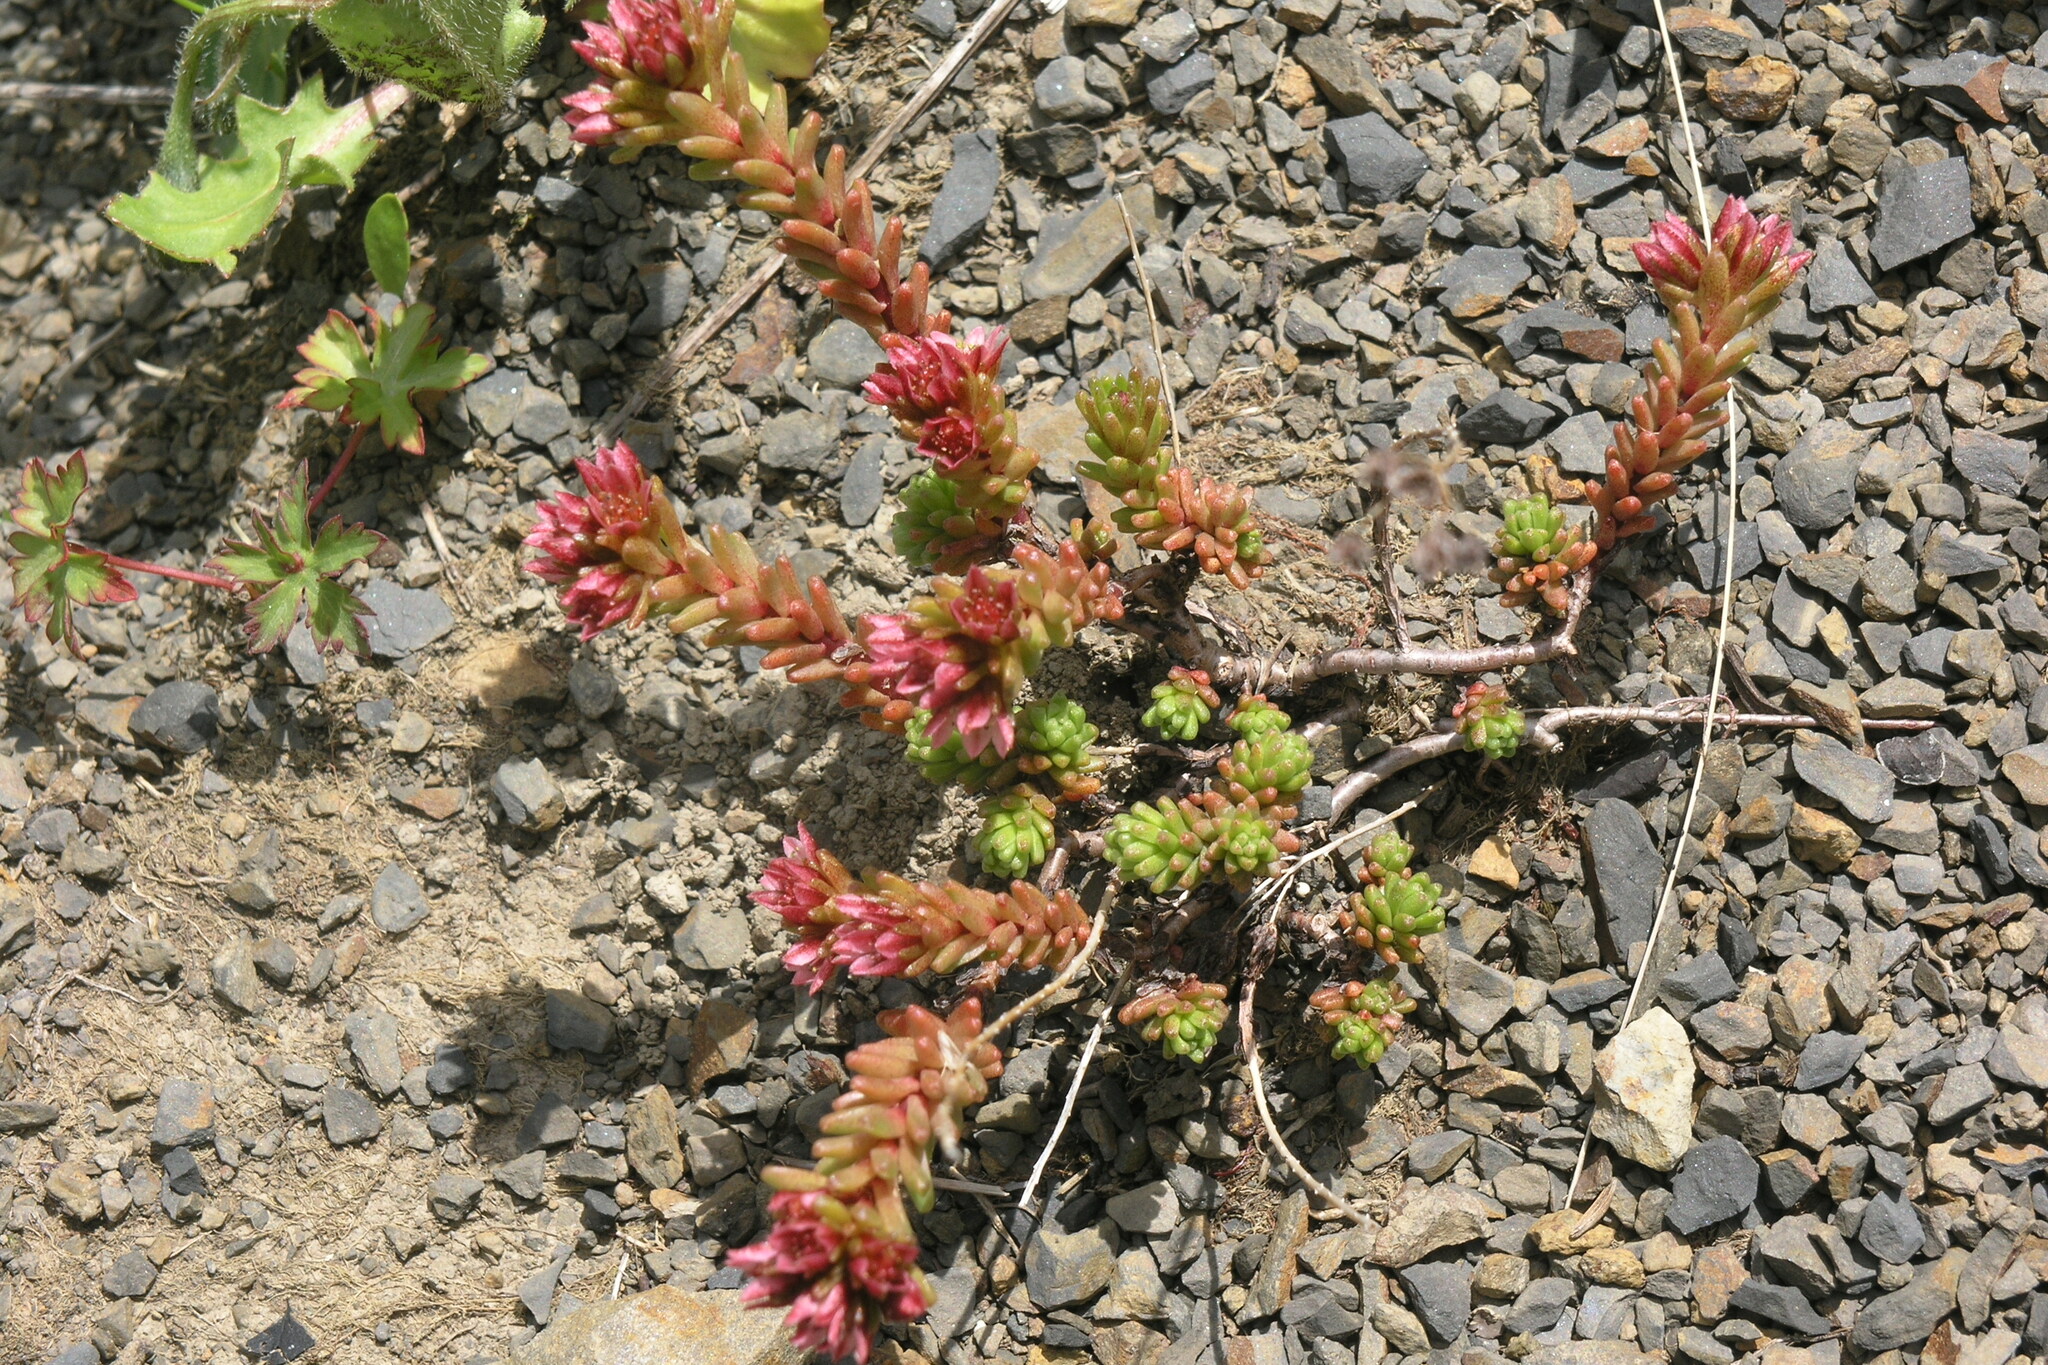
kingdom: Plantae
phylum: Tracheophyta
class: Magnoliopsida
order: Saxifragales
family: Crassulaceae
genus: Sedum
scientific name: Sedum tenellum
